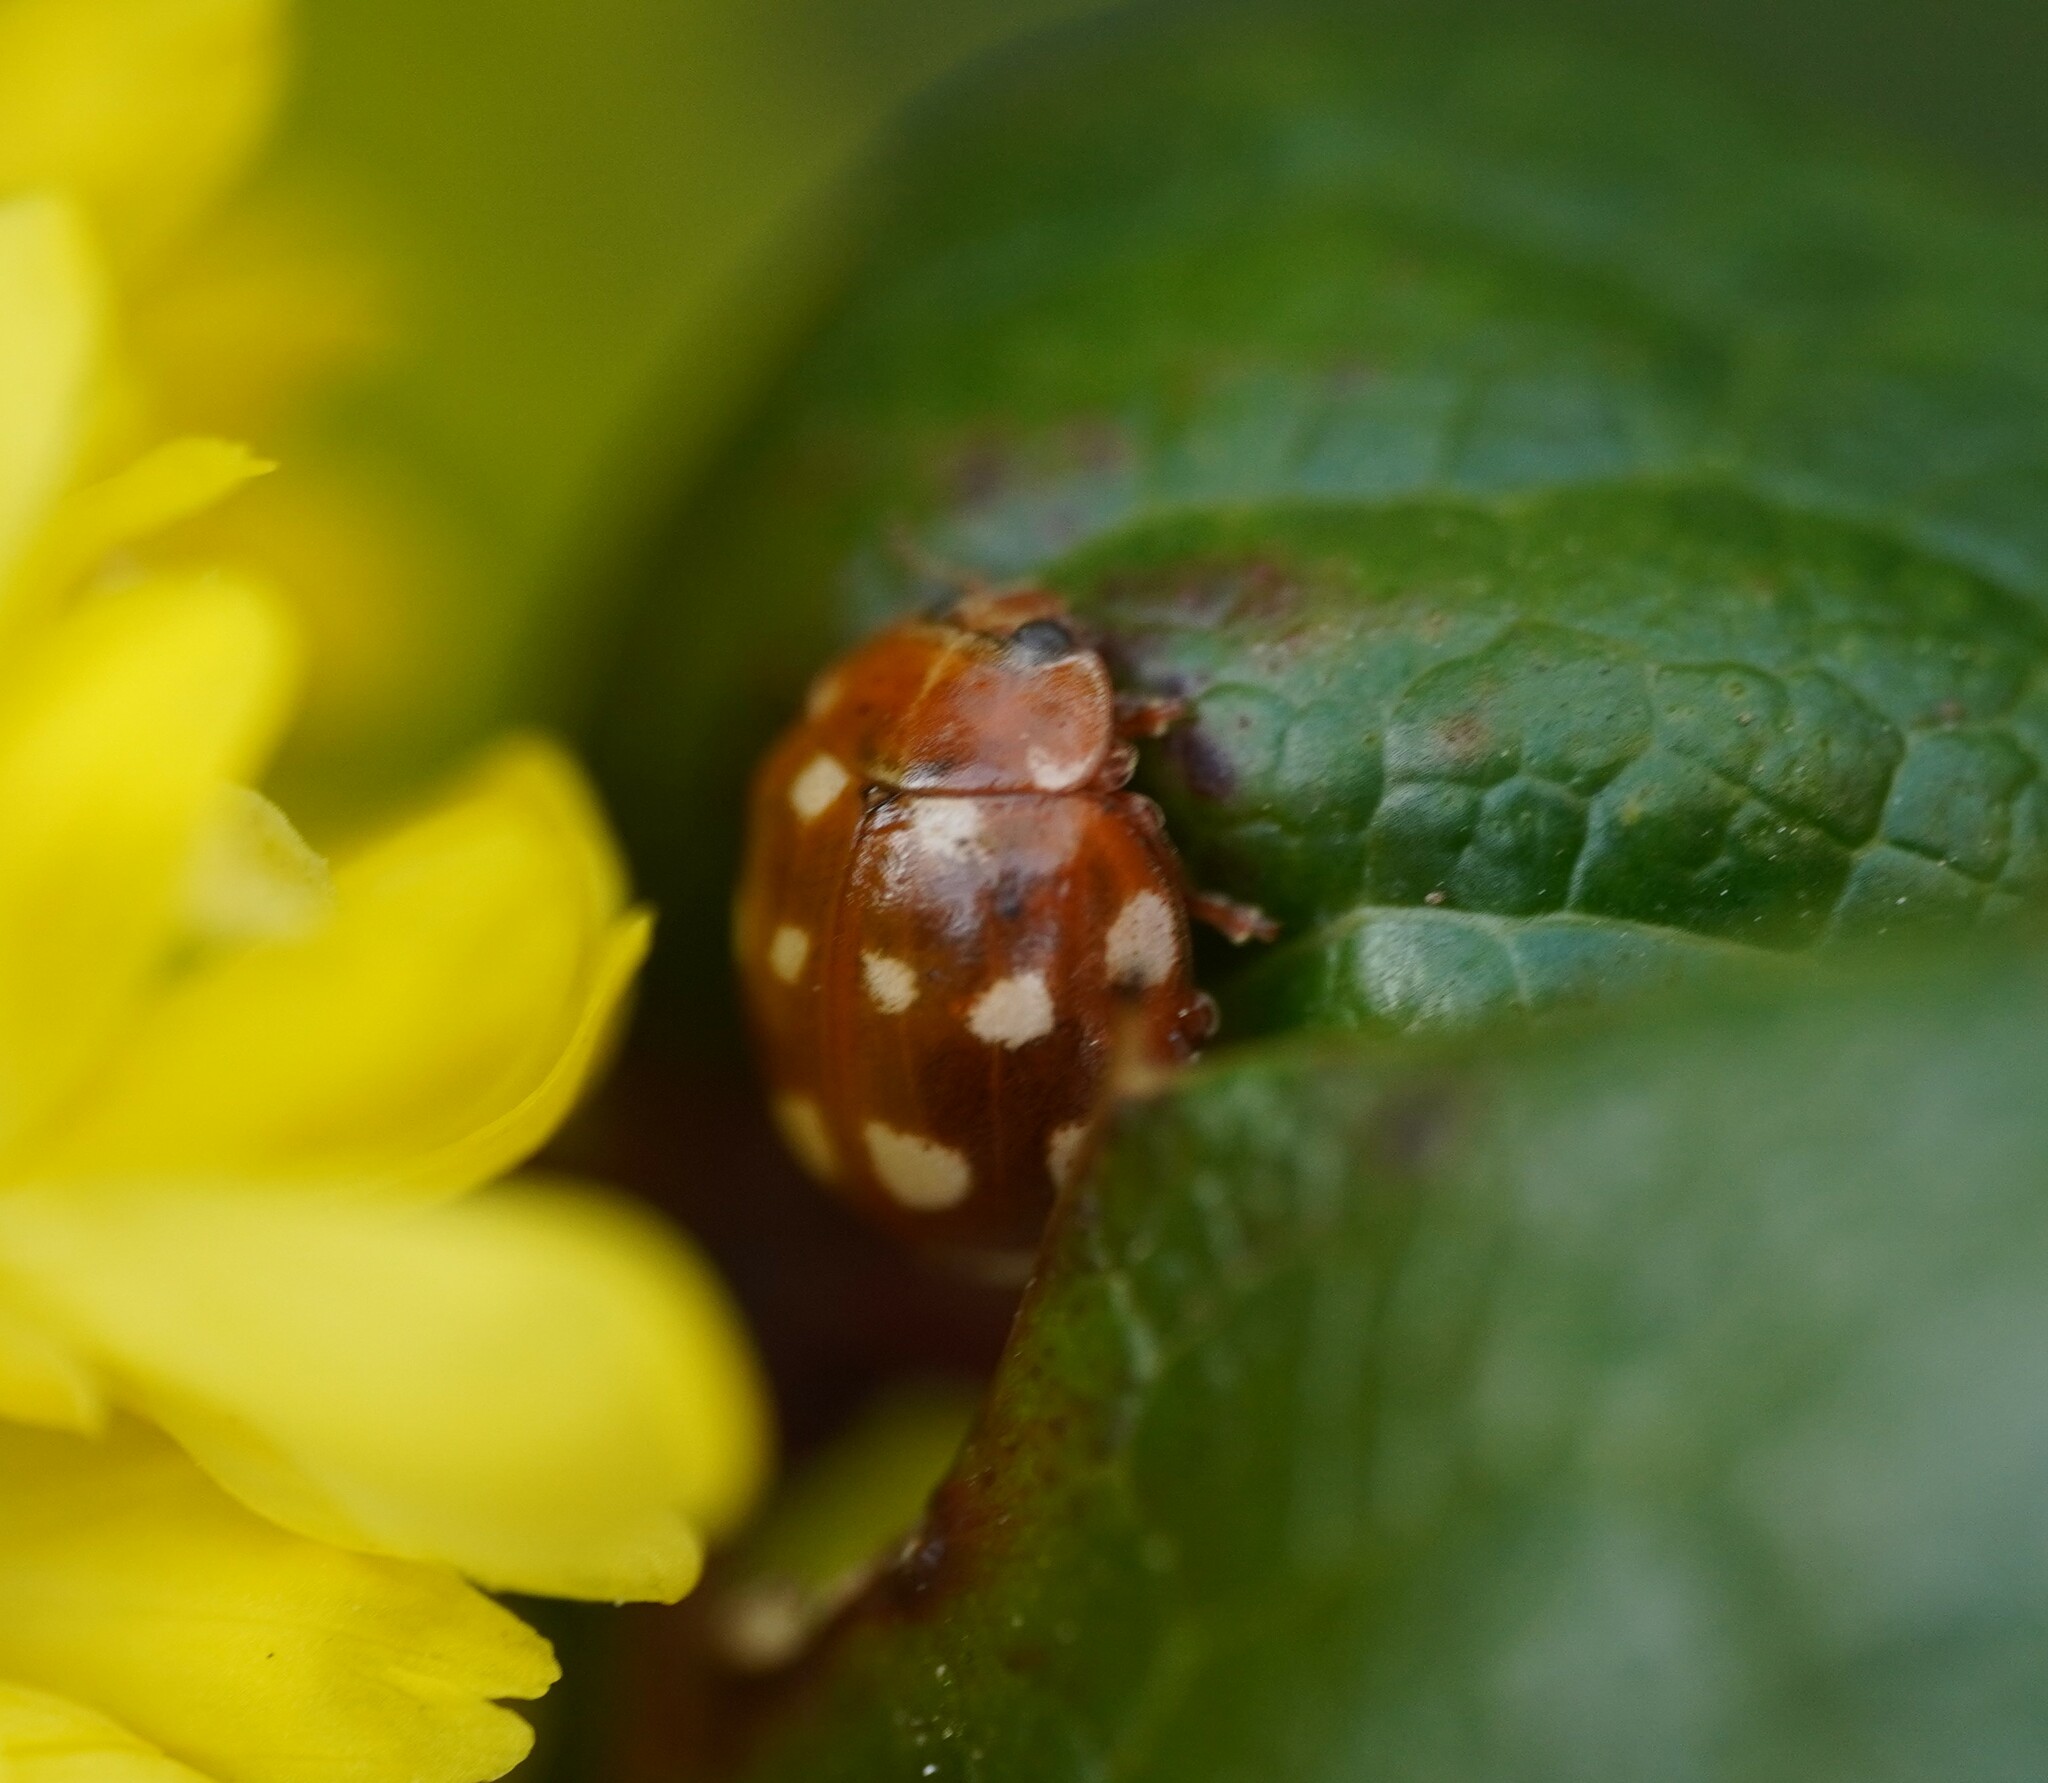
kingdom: Animalia
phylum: Arthropoda
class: Insecta
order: Coleoptera
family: Coccinellidae
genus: Calvia
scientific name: Calvia quatuordecimguttata
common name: Cream-spot ladybird
